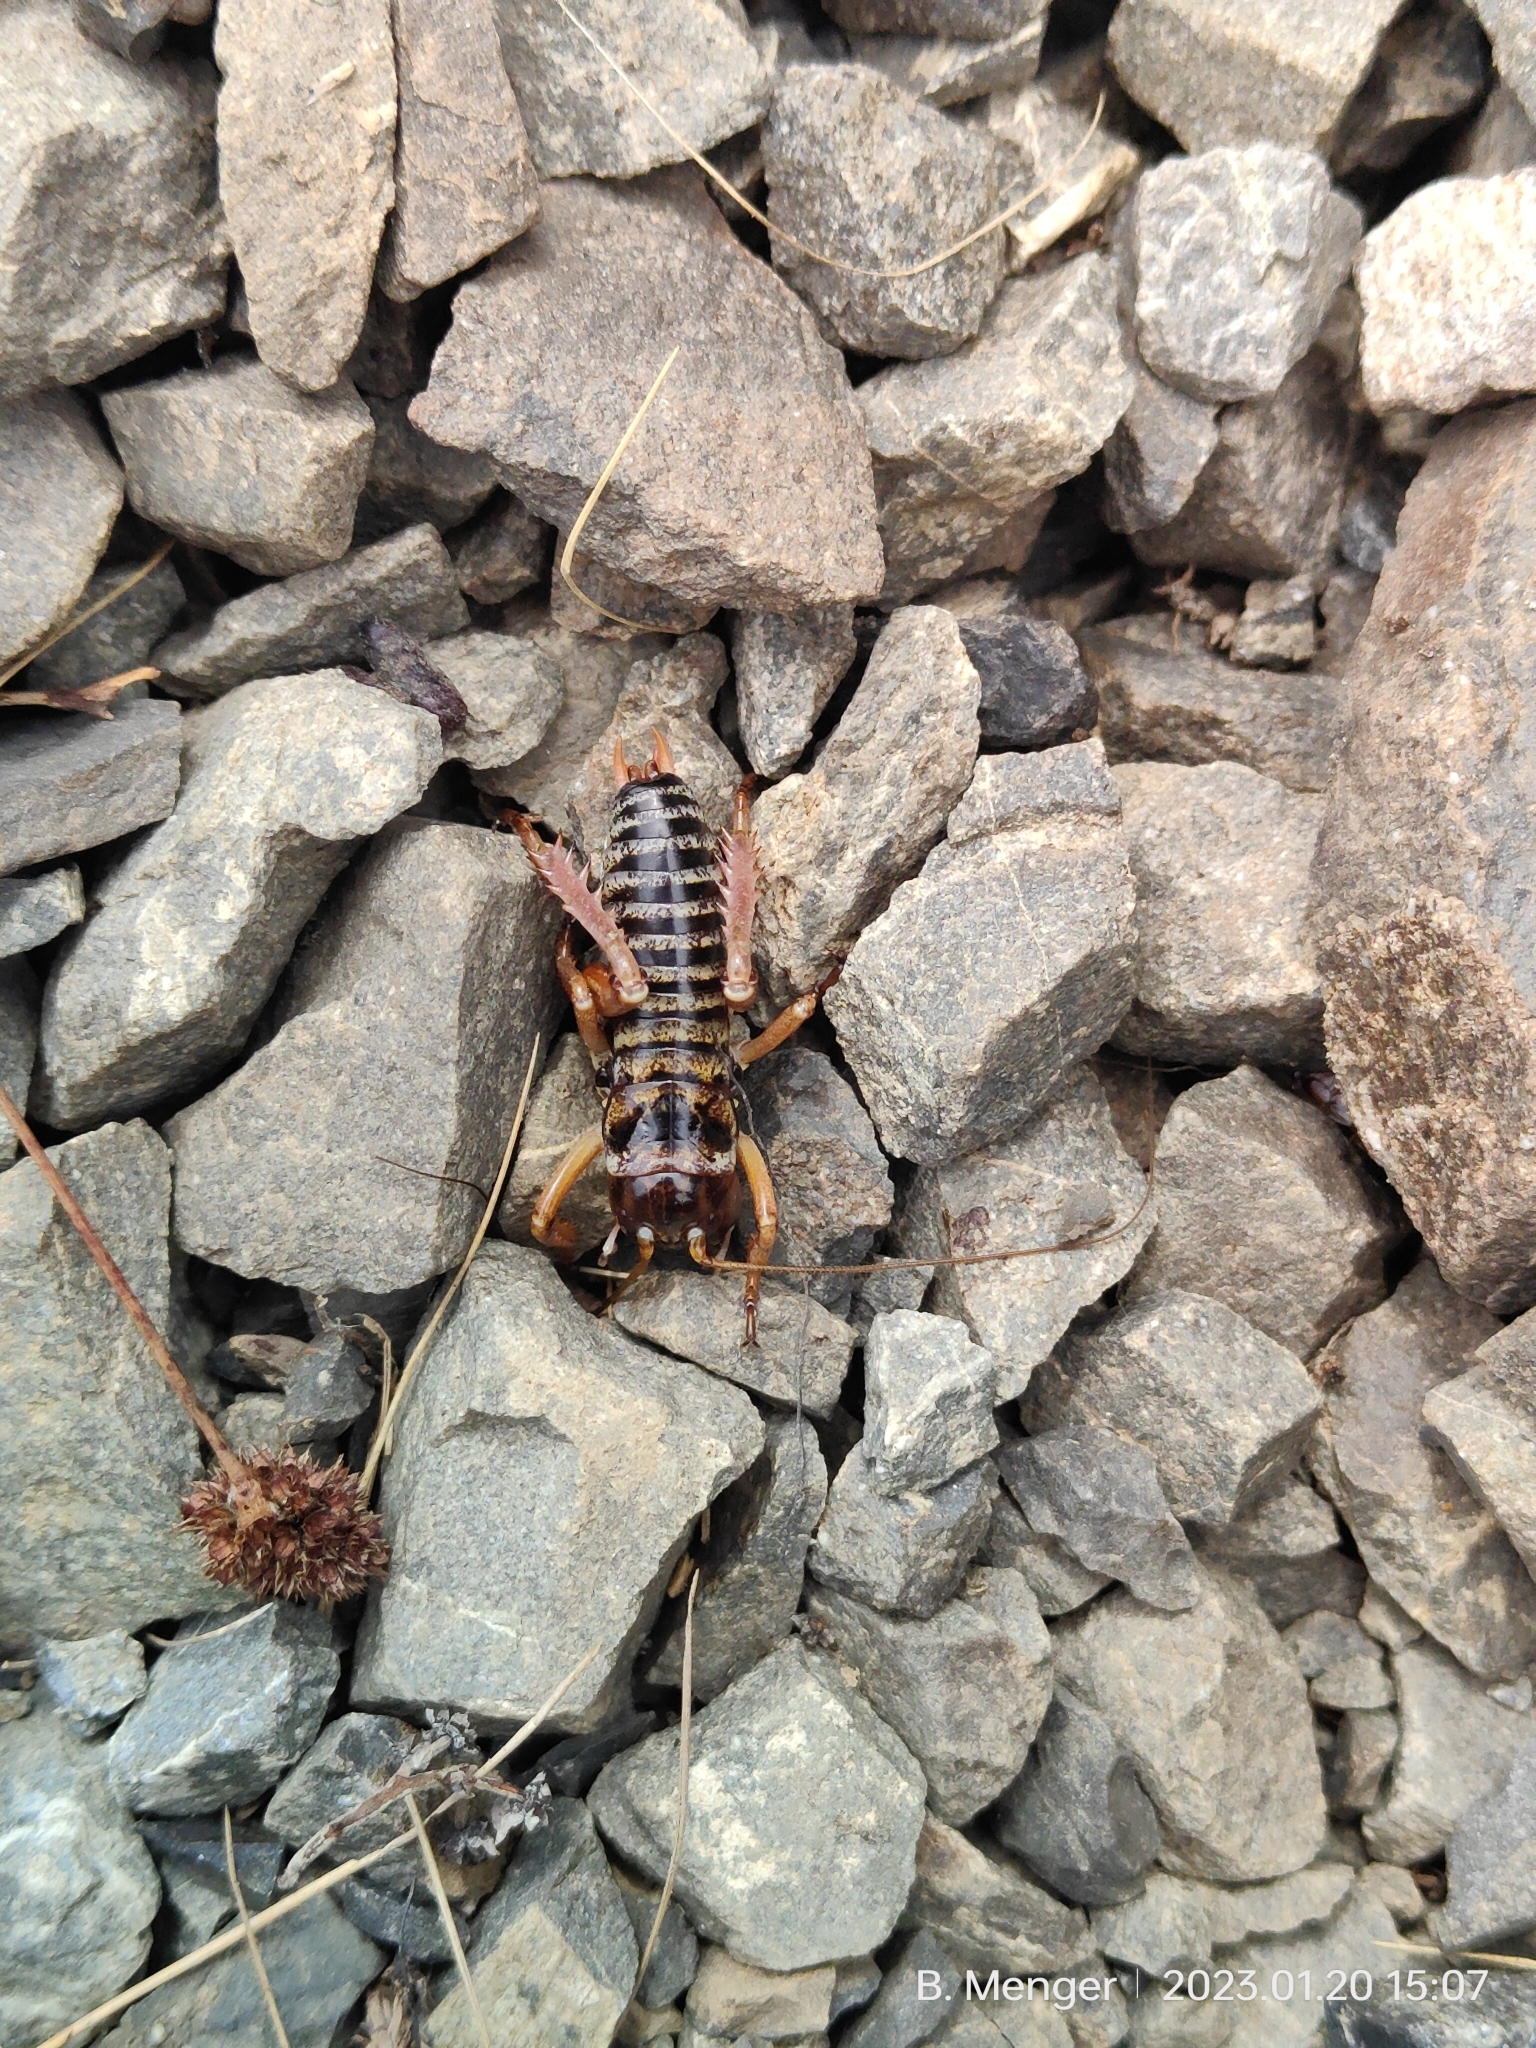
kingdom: Animalia
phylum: Arthropoda
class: Insecta
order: Orthoptera
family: Anostostomatidae
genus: Hemideina
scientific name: Hemideina maori
